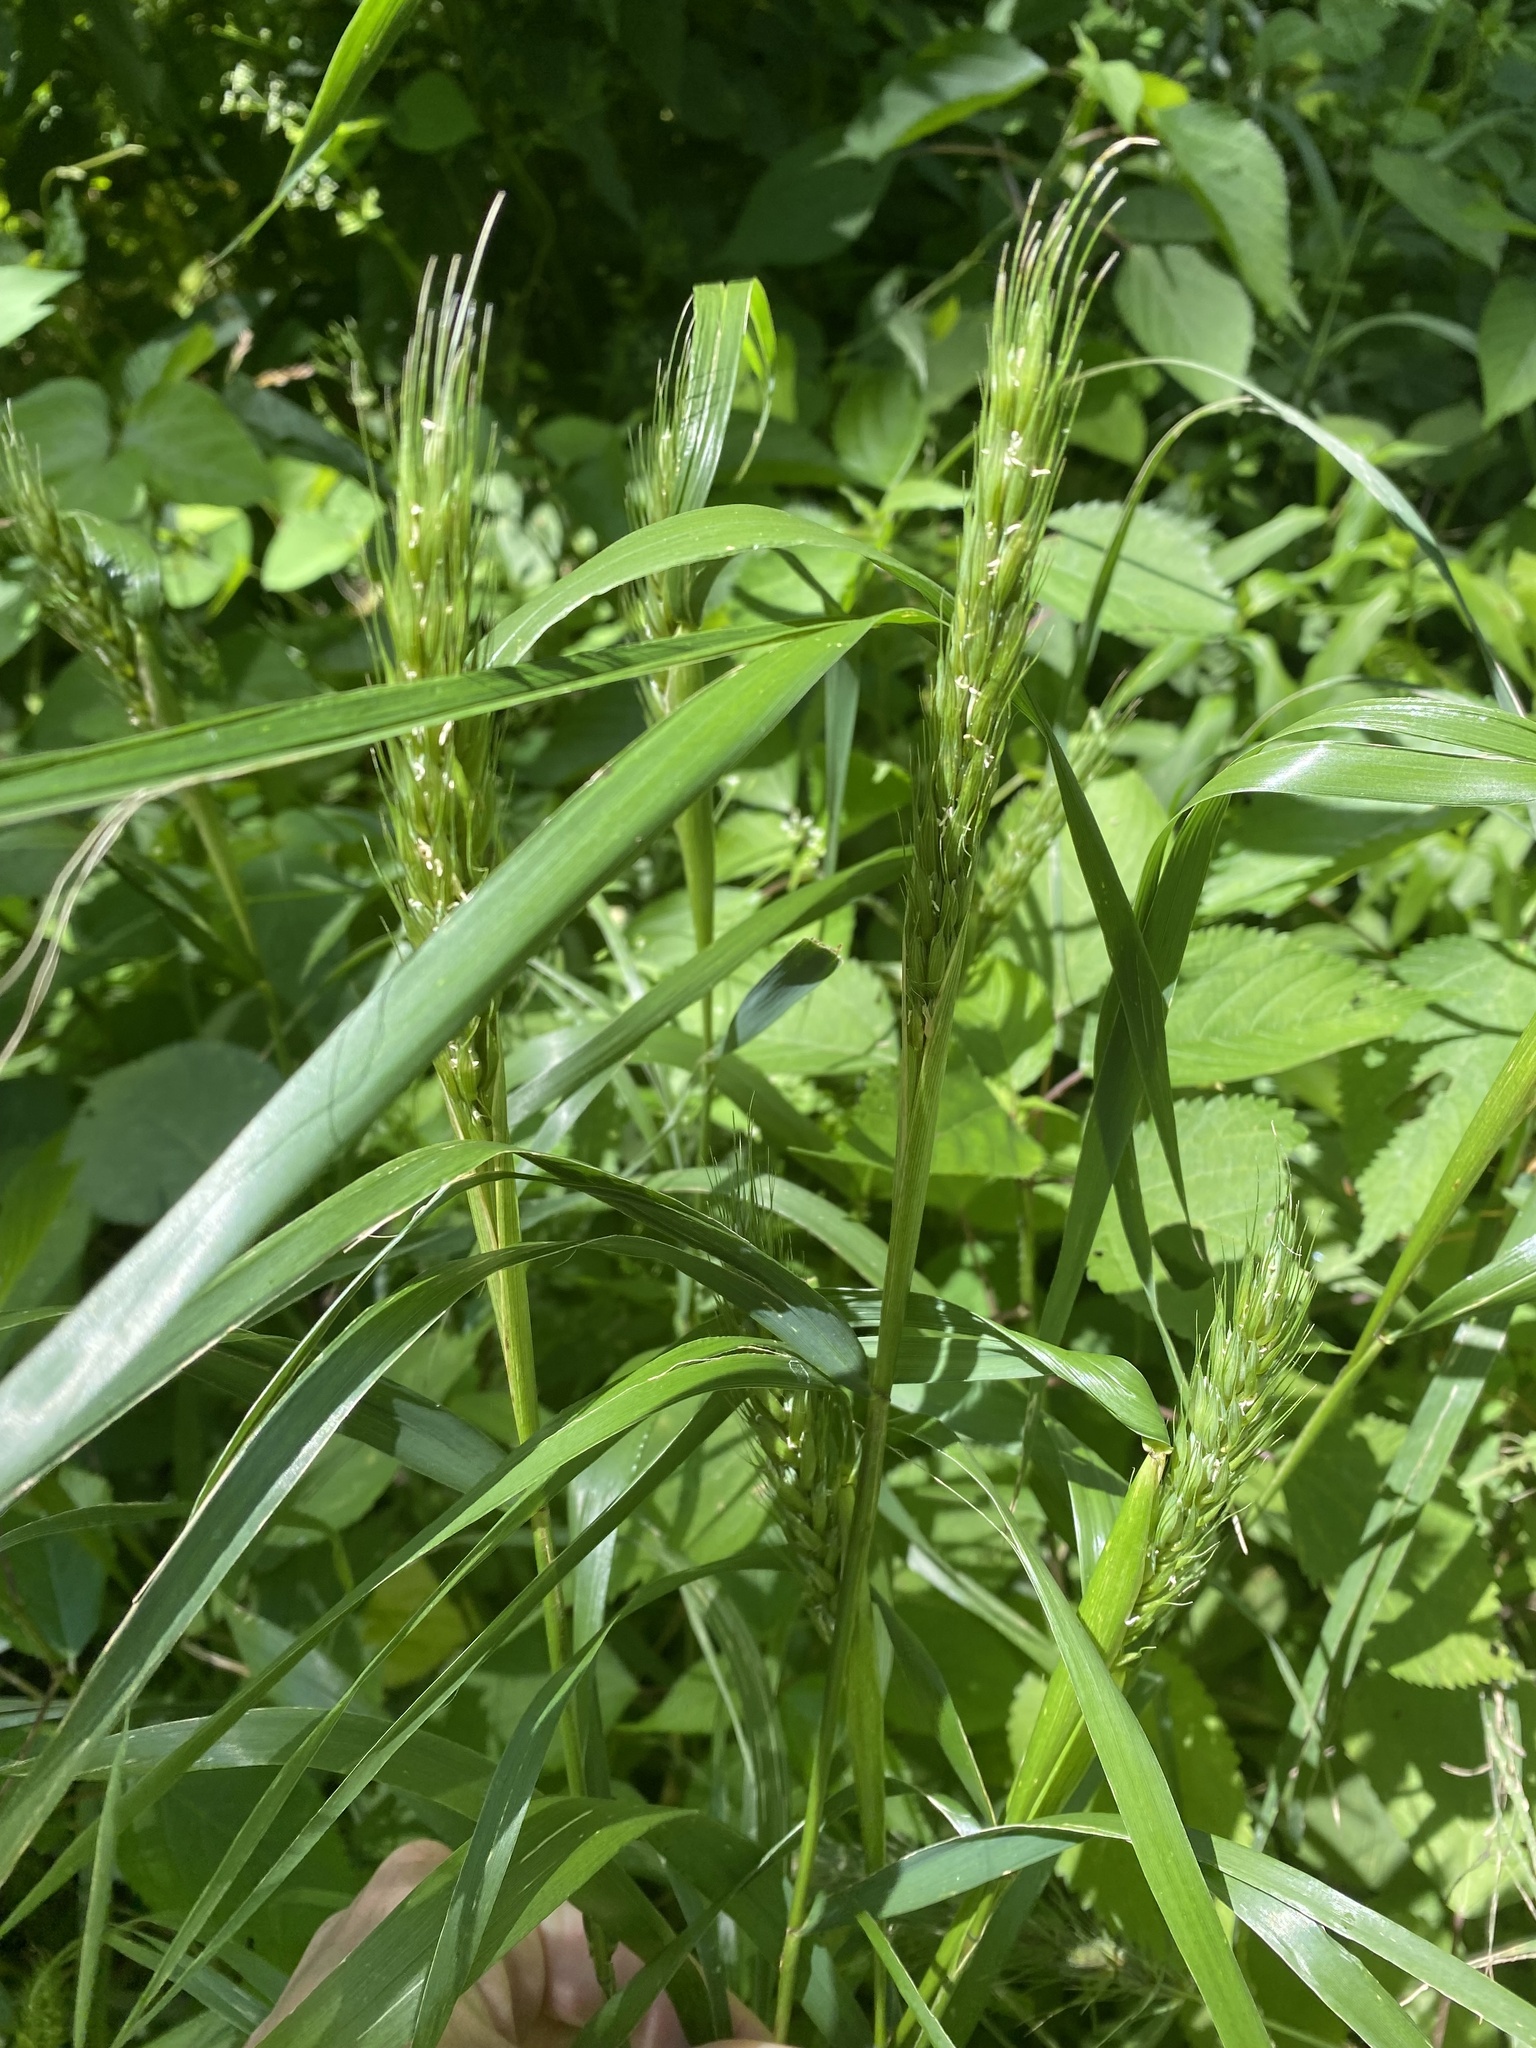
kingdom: Plantae
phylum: Tracheophyta
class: Liliopsida
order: Poales
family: Poaceae
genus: Elymus
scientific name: Elymus virginicus
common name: Common eastern wildrye
